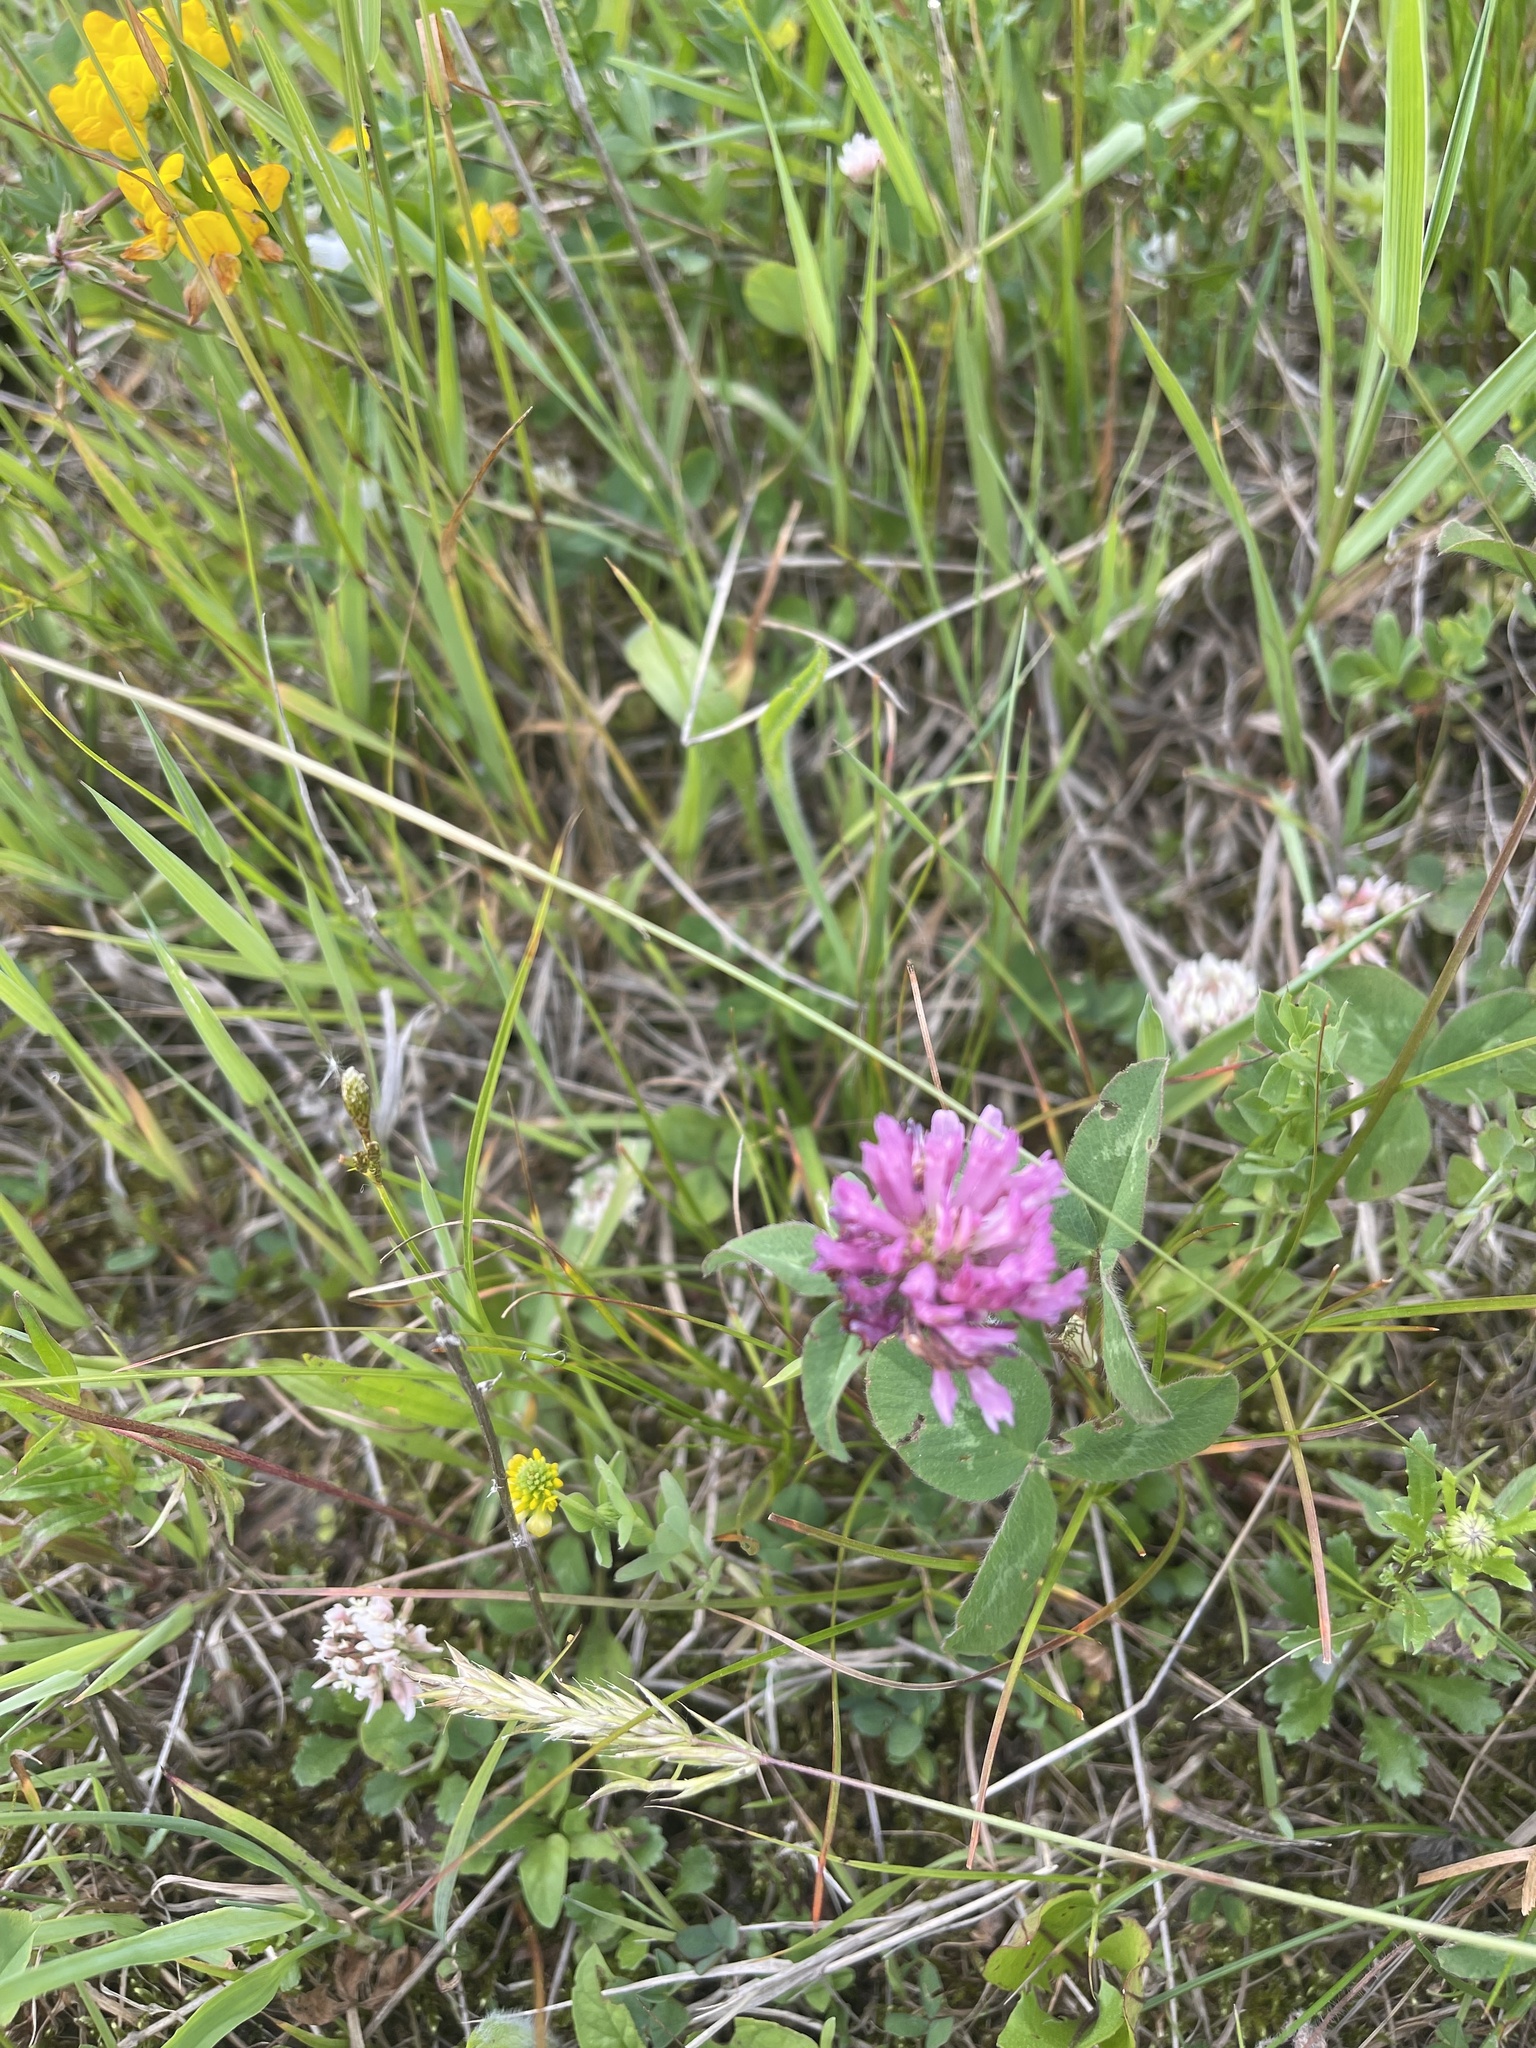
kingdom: Plantae
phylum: Tracheophyta
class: Magnoliopsida
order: Fabales
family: Fabaceae
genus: Trifolium
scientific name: Trifolium pratense
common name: Red clover
